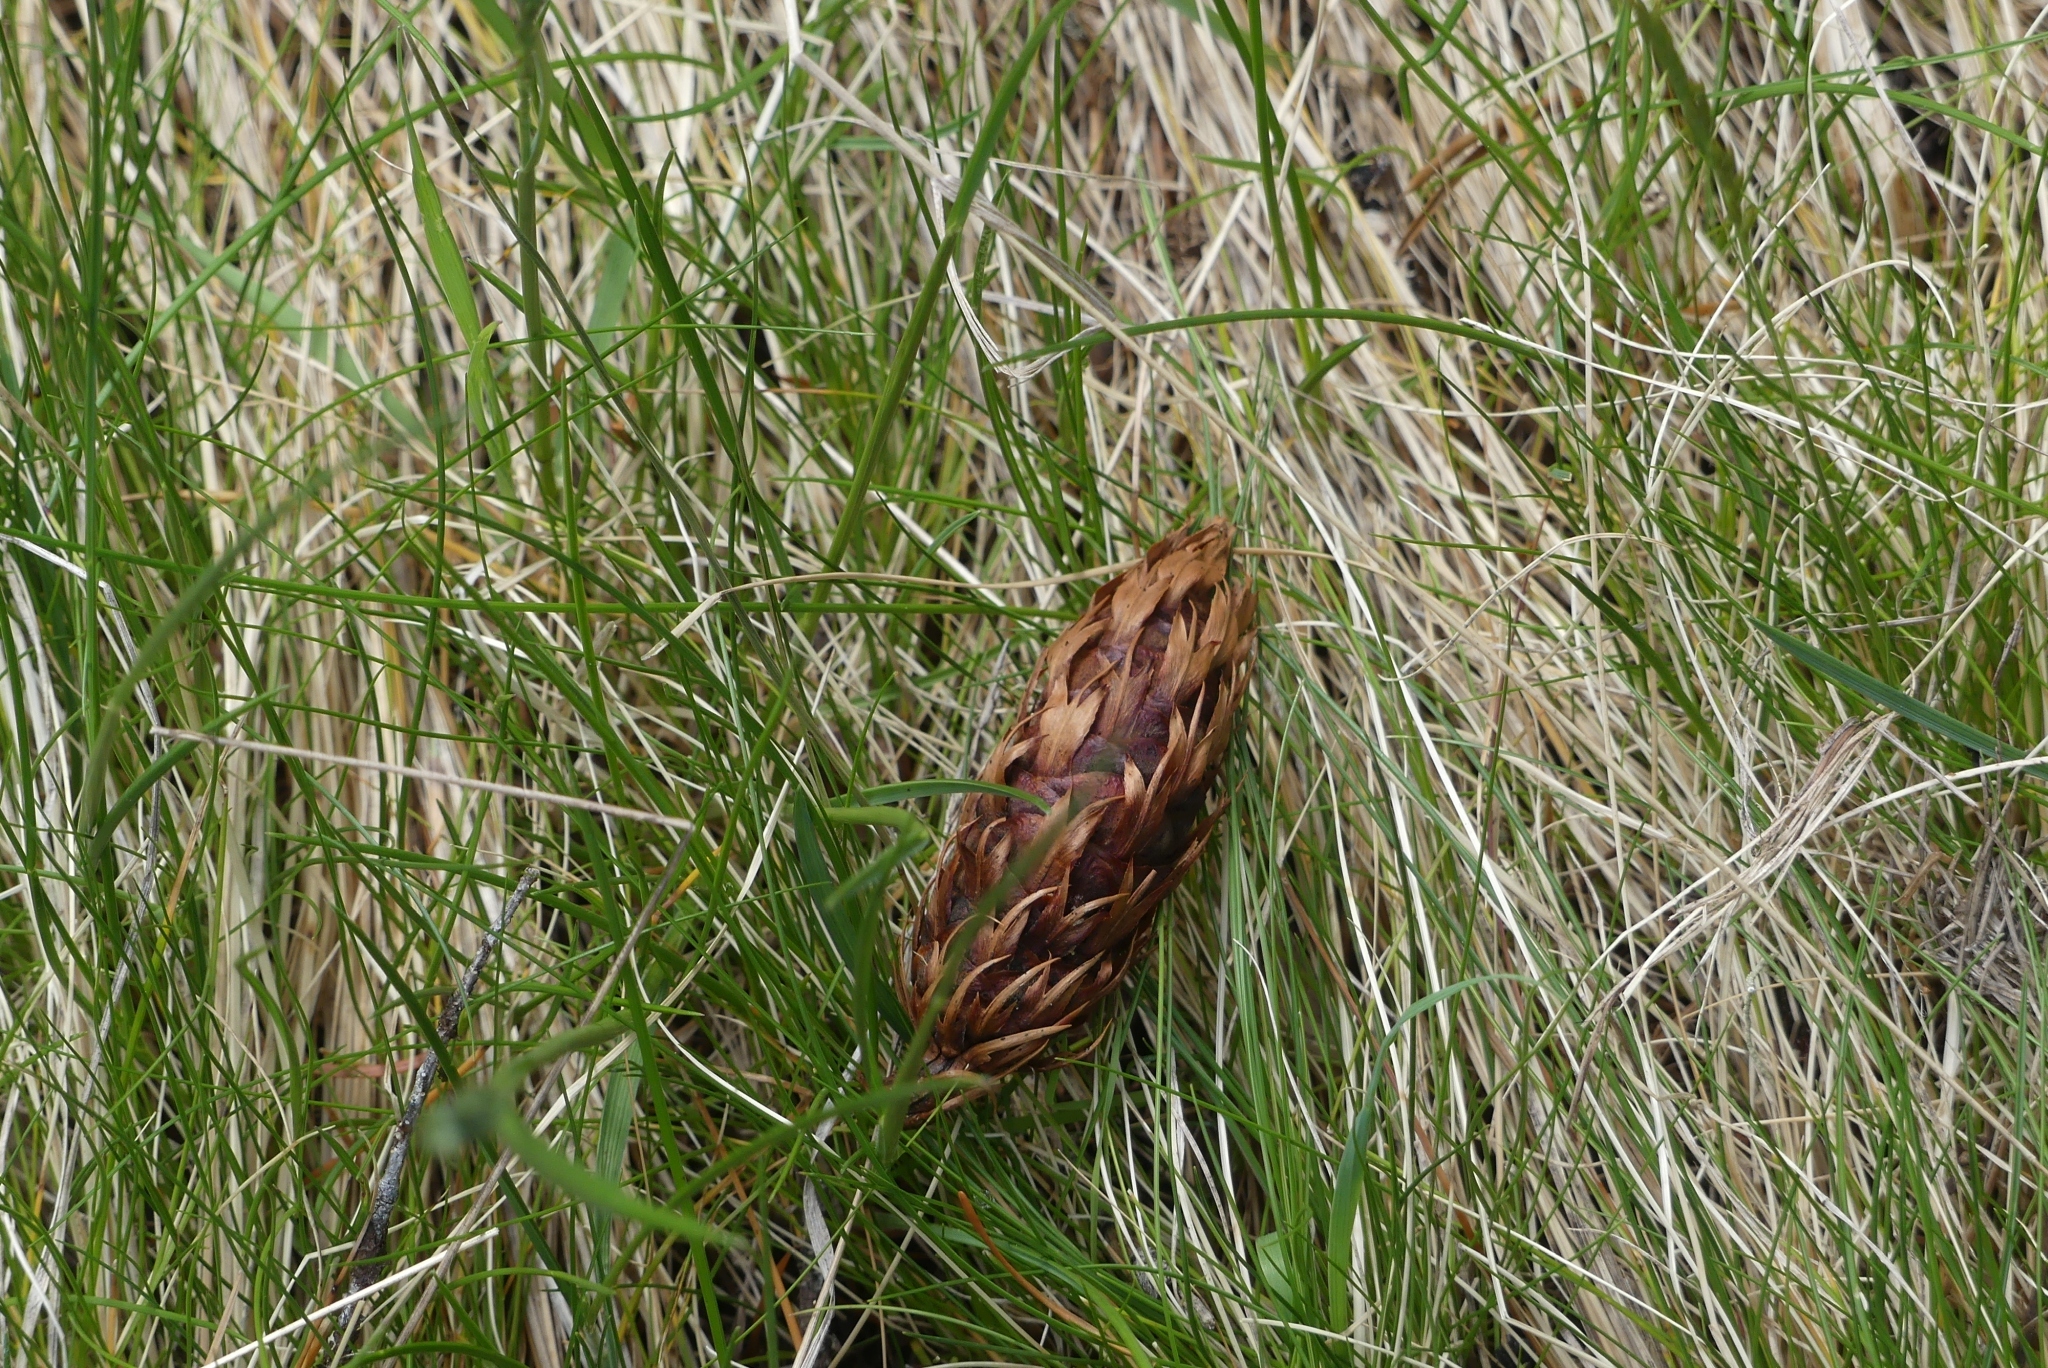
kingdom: Plantae
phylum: Tracheophyta
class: Pinopsida
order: Pinales
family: Pinaceae
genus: Pseudotsuga
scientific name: Pseudotsuga menziesii
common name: Douglas fir
